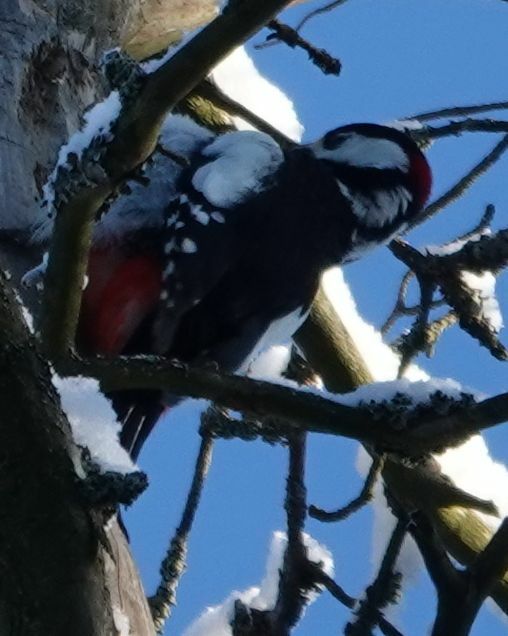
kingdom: Animalia
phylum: Chordata
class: Aves
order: Piciformes
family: Picidae
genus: Dendrocopos
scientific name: Dendrocopos major
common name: Great spotted woodpecker
